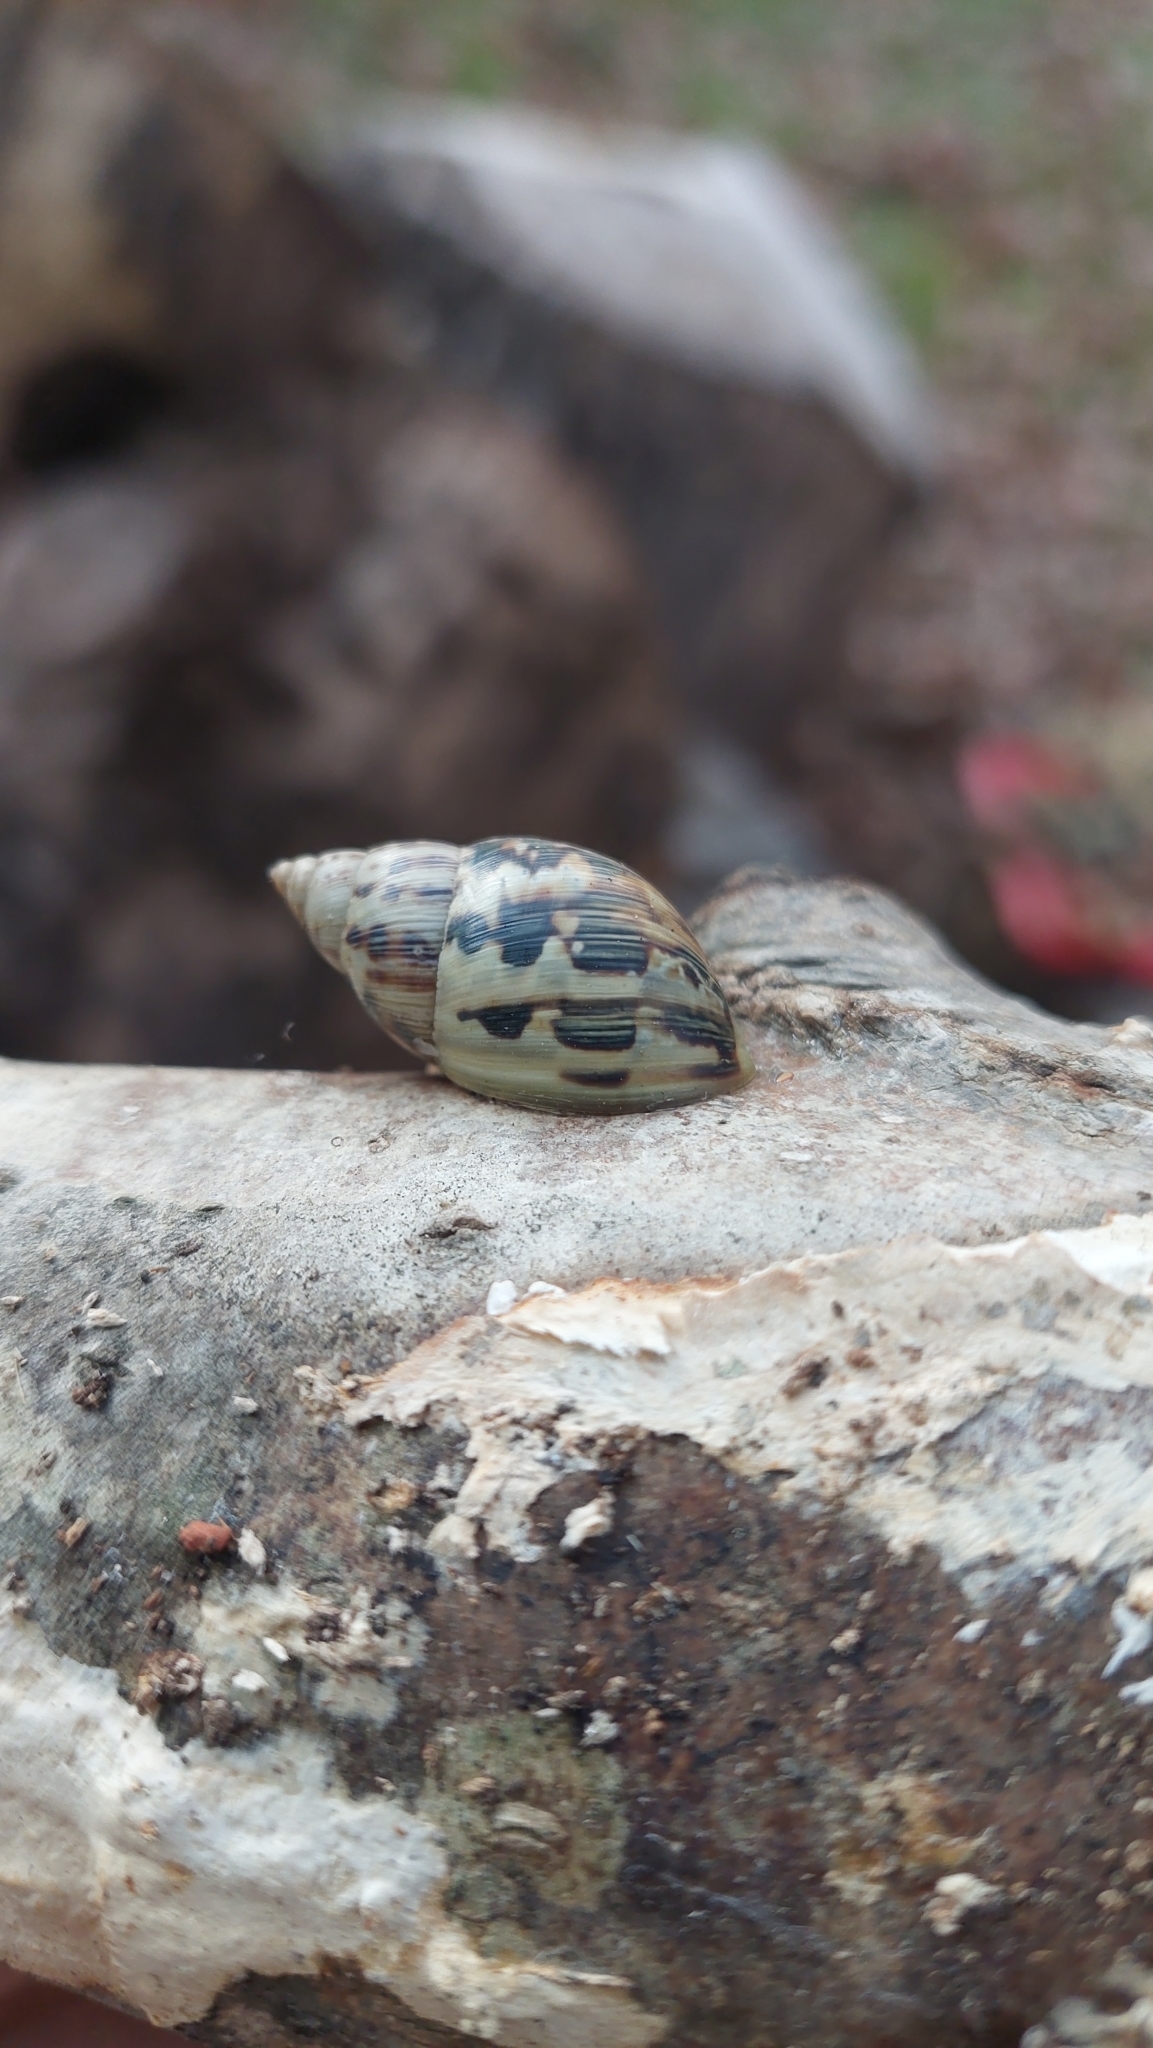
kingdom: Animalia
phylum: Mollusca
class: Gastropoda
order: Stylommatophora
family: Bulimulidae
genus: Drymaeus
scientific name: Drymaeus papyraceus
